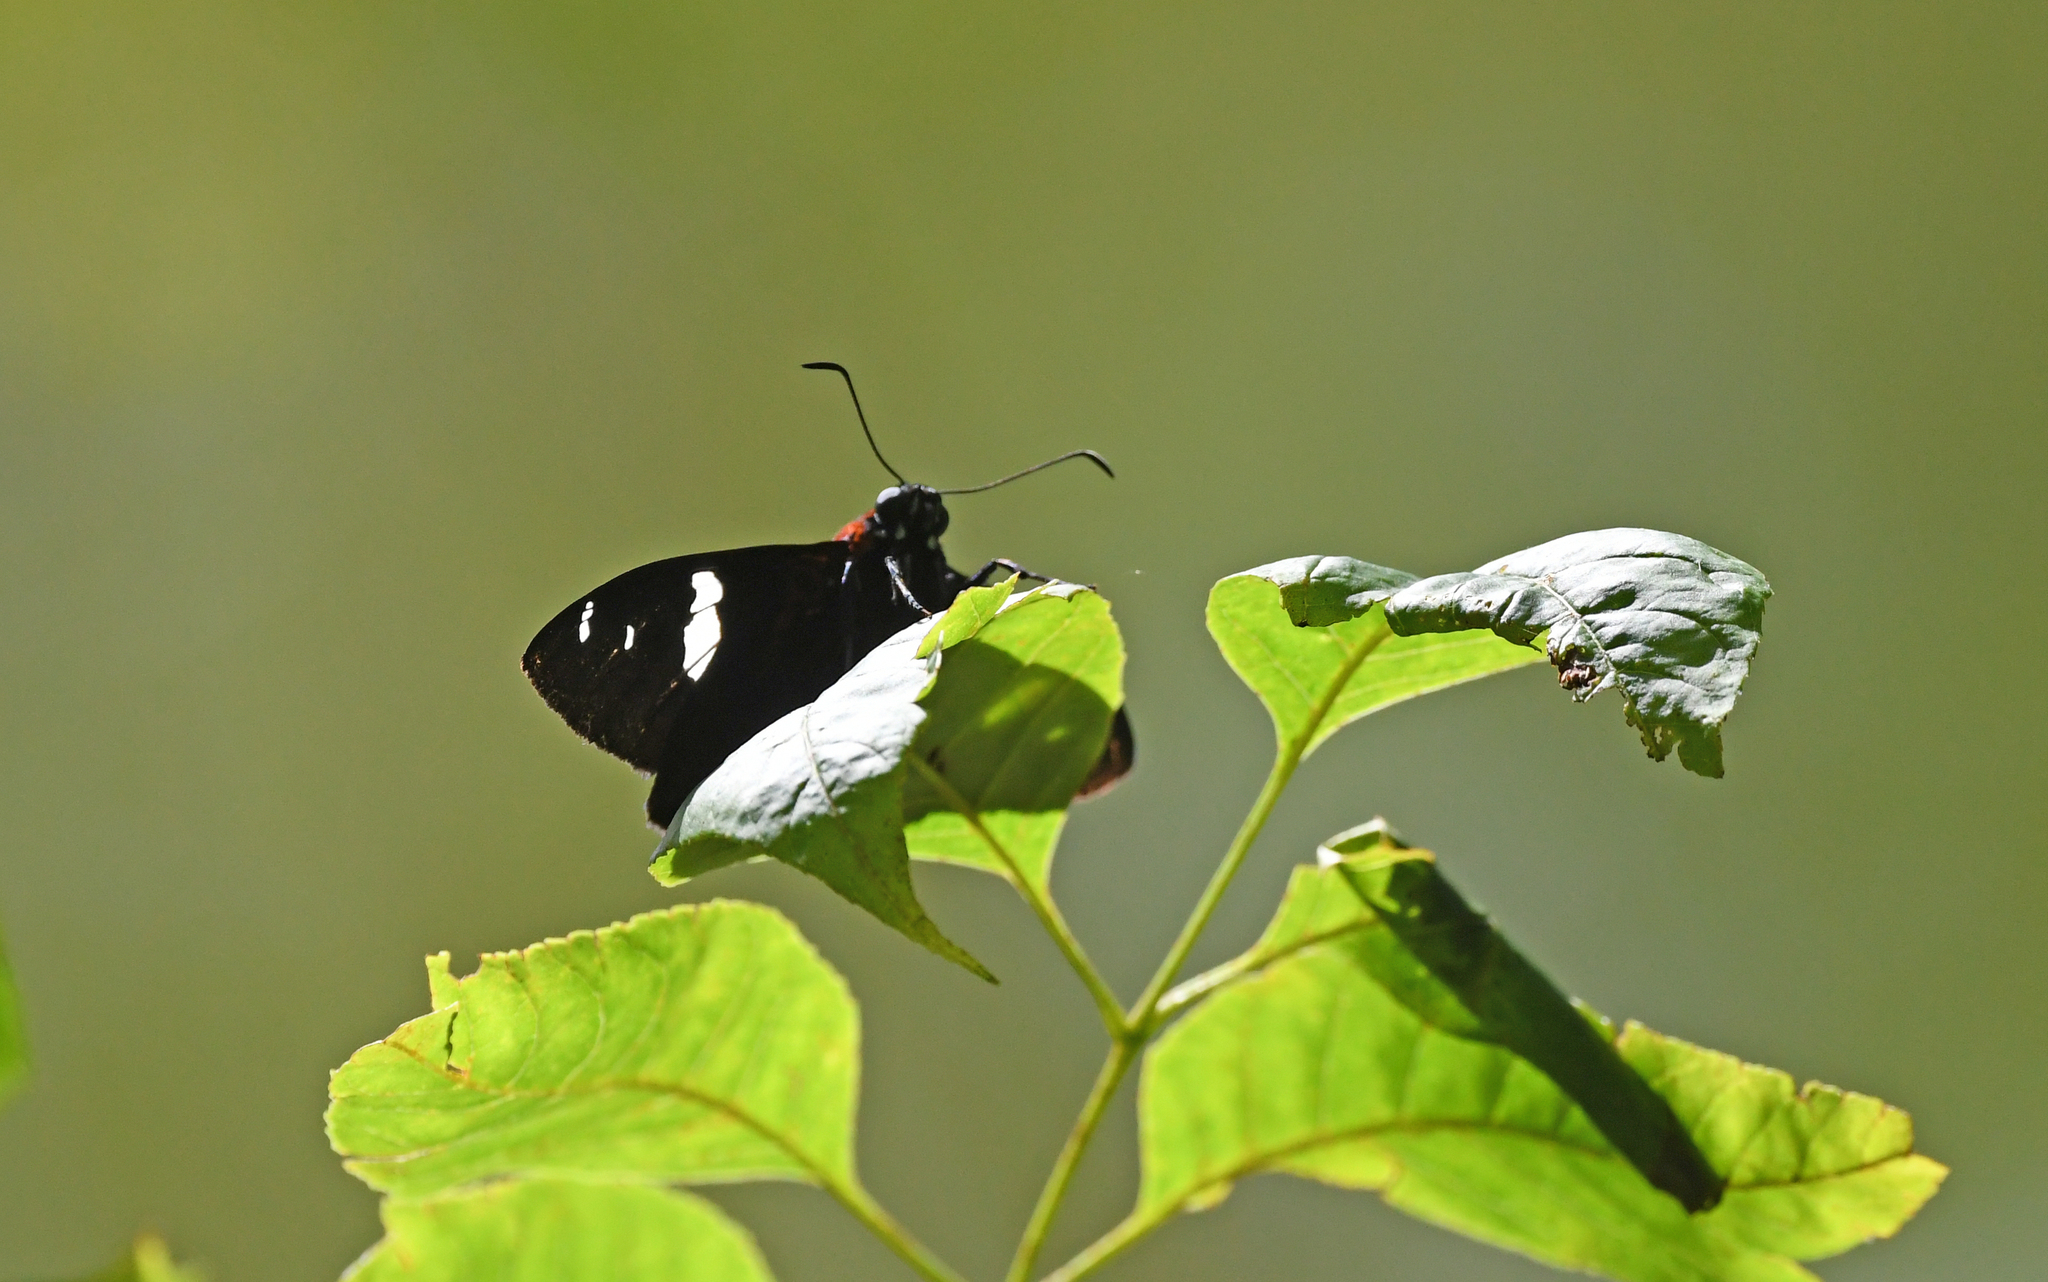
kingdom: Animalia
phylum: Arthropoda
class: Insecta
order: Lepidoptera
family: Hesperiidae
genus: Pyrrhopyge
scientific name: Pyrrhopyge Yanguna spatiosa
